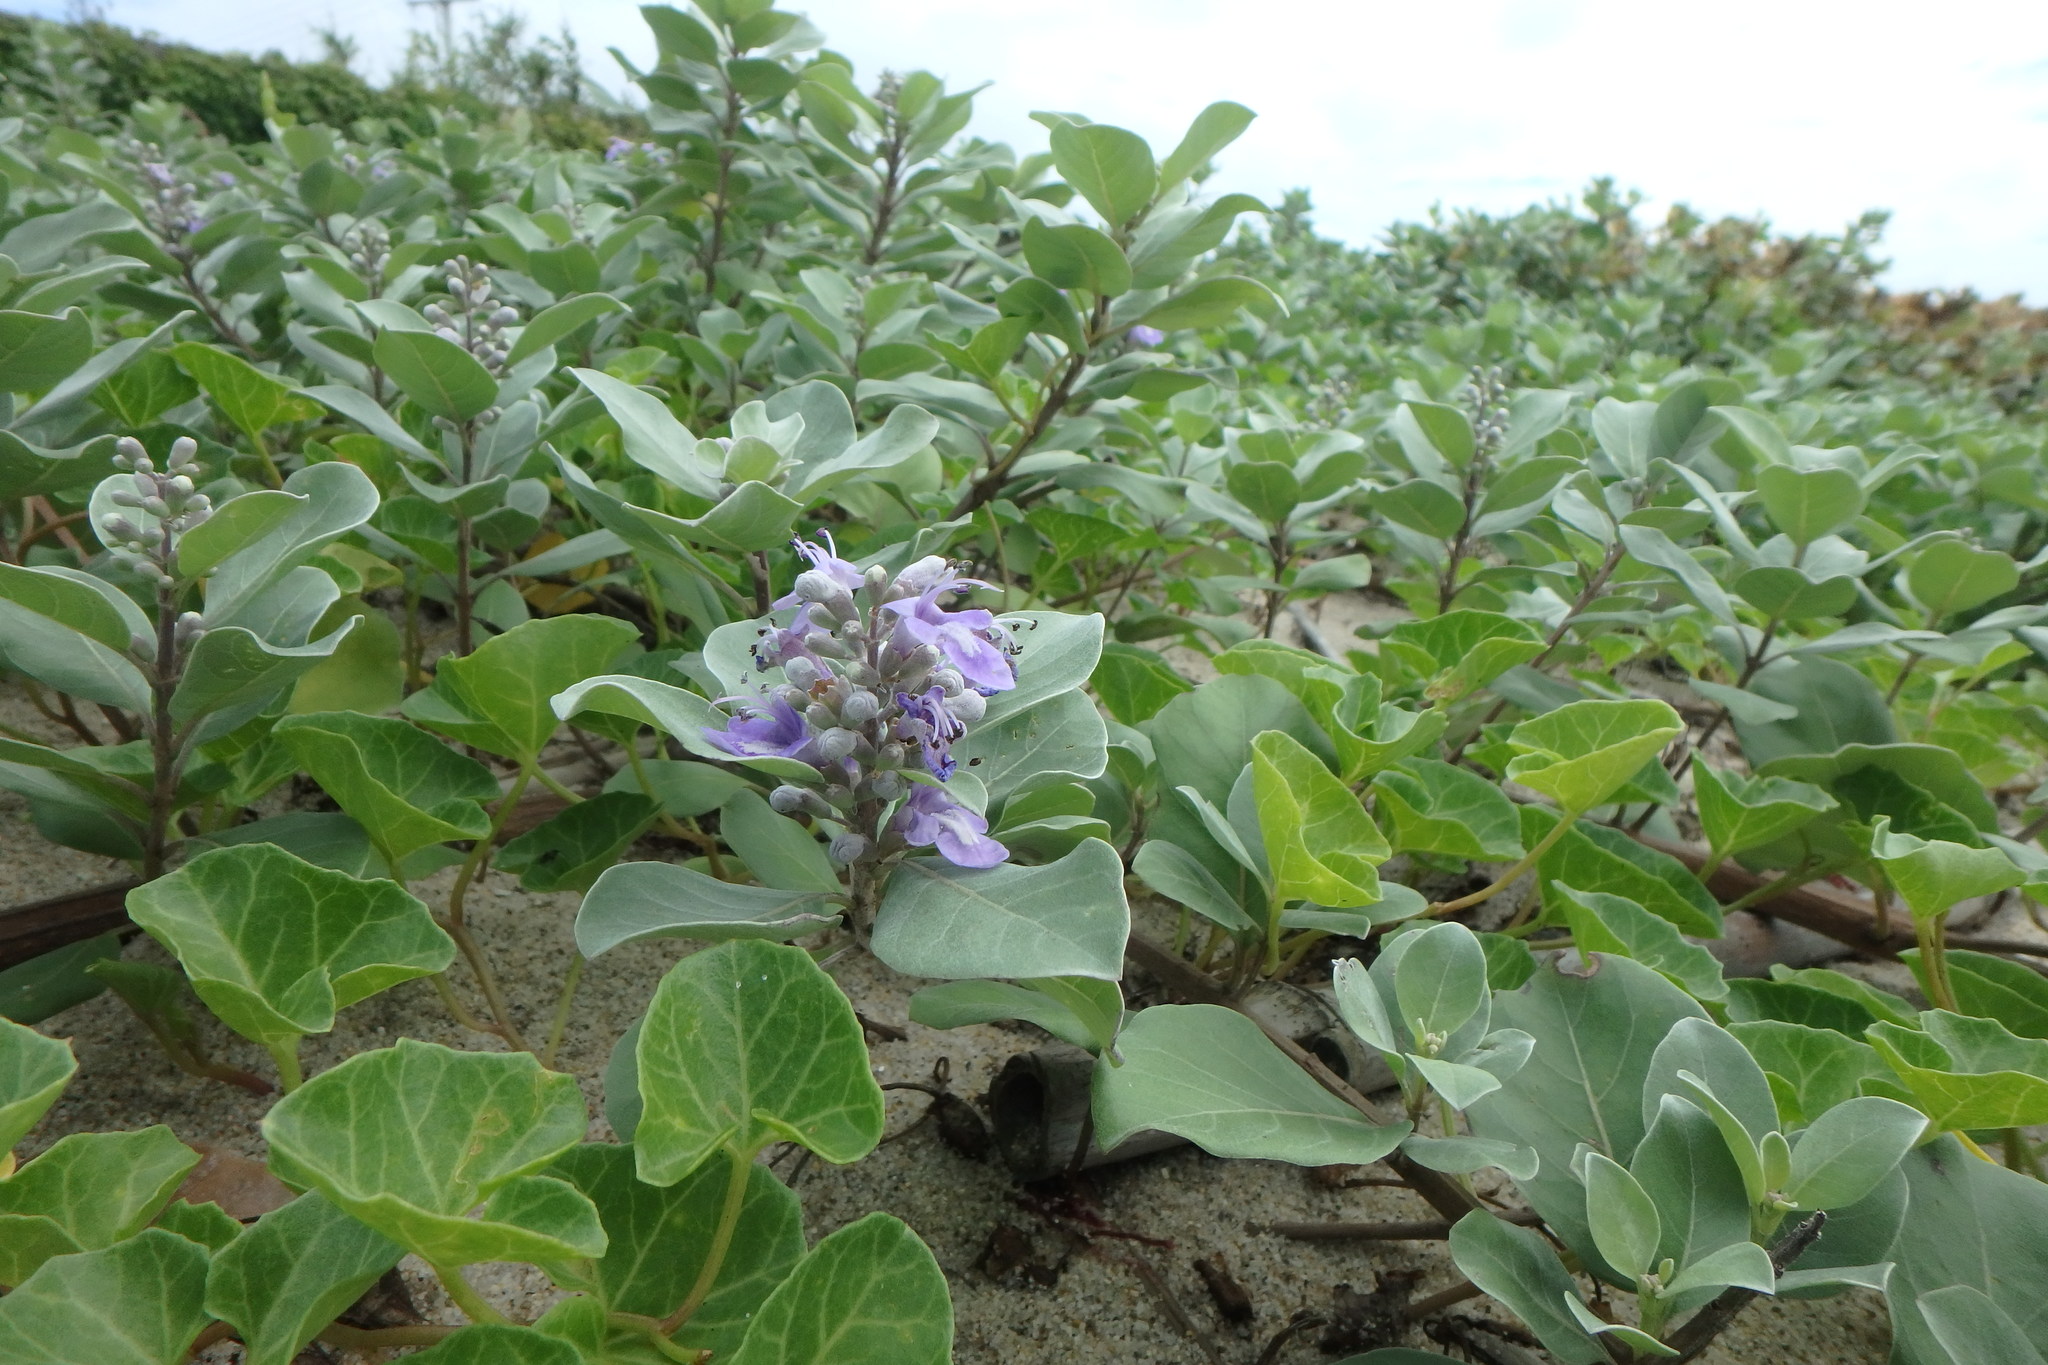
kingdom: Plantae
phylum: Tracheophyta
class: Magnoliopsida
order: Lamiales
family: Lamiaceae
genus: Vitex
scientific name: Vitex rotundifolia
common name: Beach vitex
